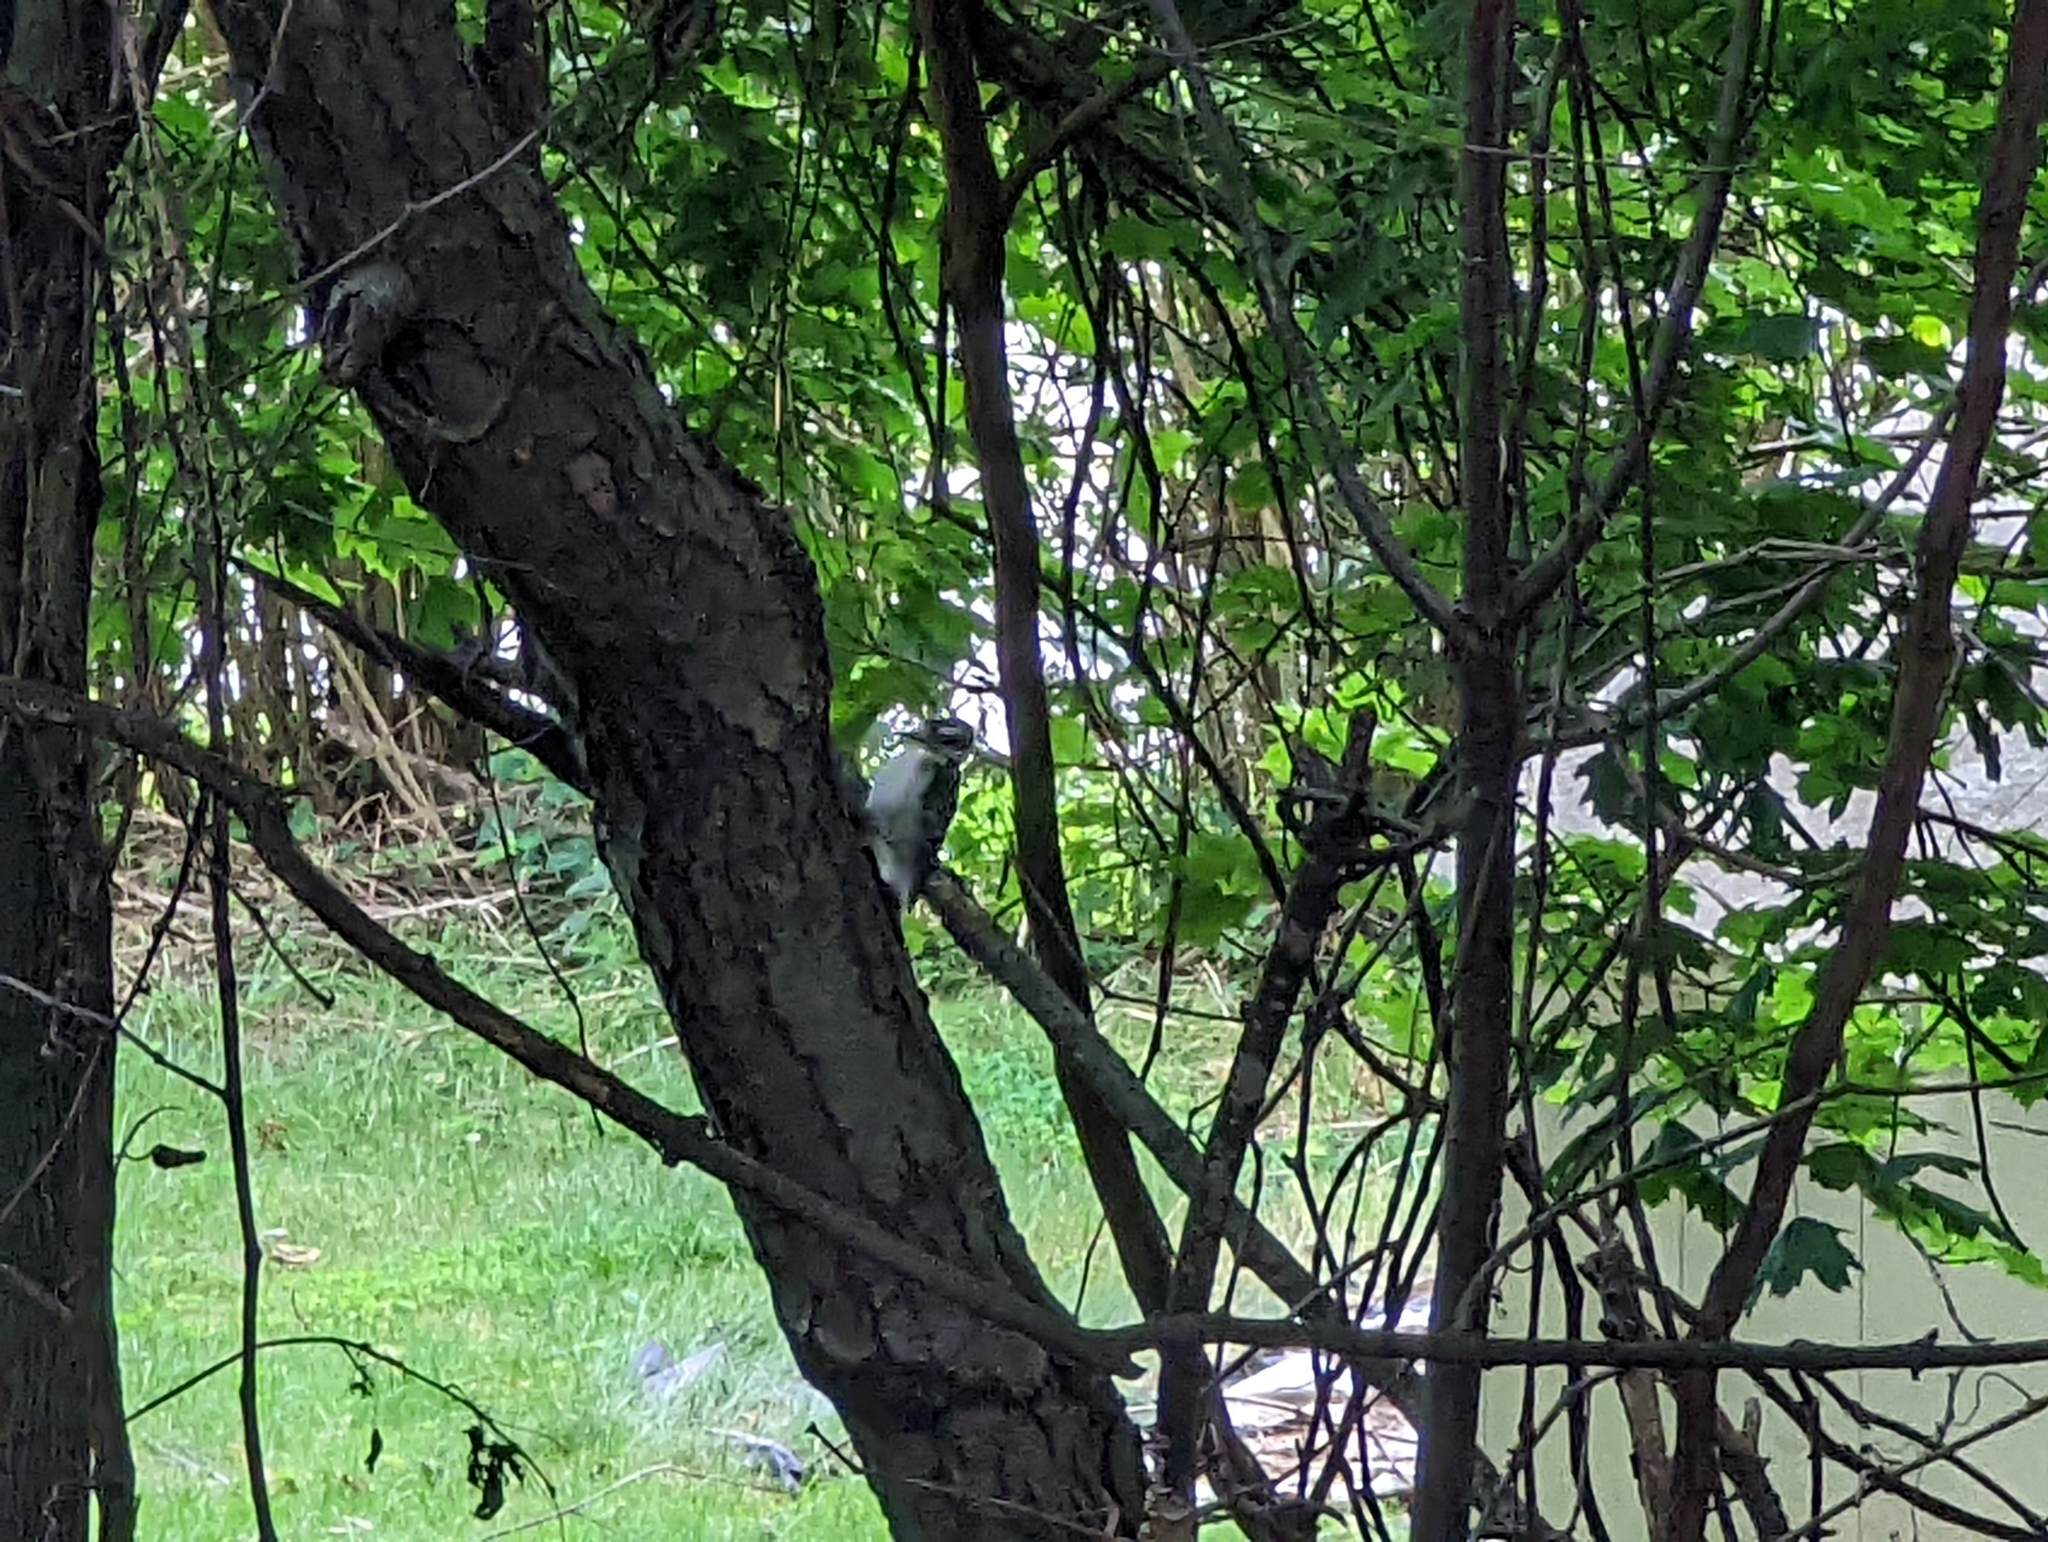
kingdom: Animalia
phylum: Chordata
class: Aves
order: Piciformes
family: Picidae
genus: Dryobates
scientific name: Dryobates pubescens
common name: Downy woodpecker
